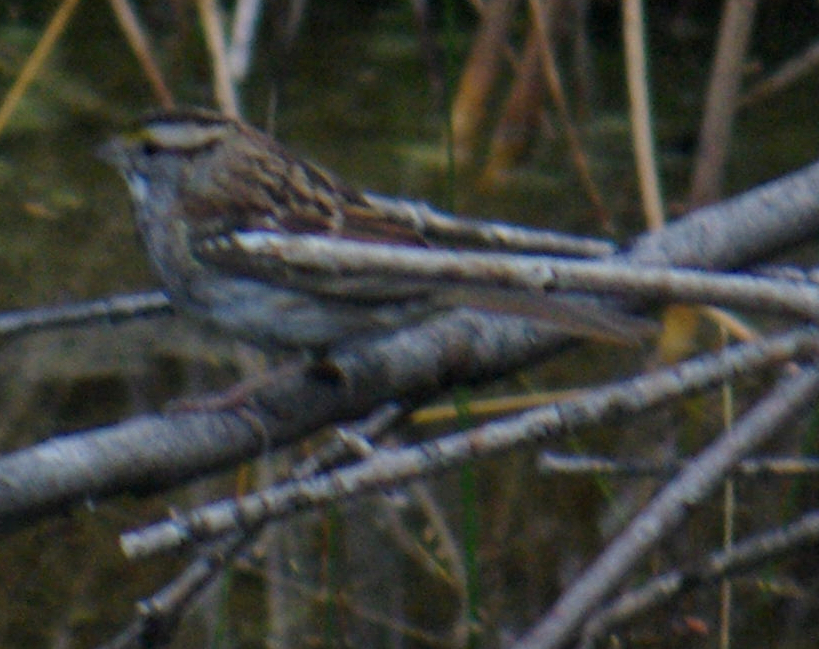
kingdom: Animalia
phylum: Chordata
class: Aves
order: Passeriformes
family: Passerellidae
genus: Zonotrichia
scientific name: Zonotrichia albicollis
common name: White-throated sparrow
